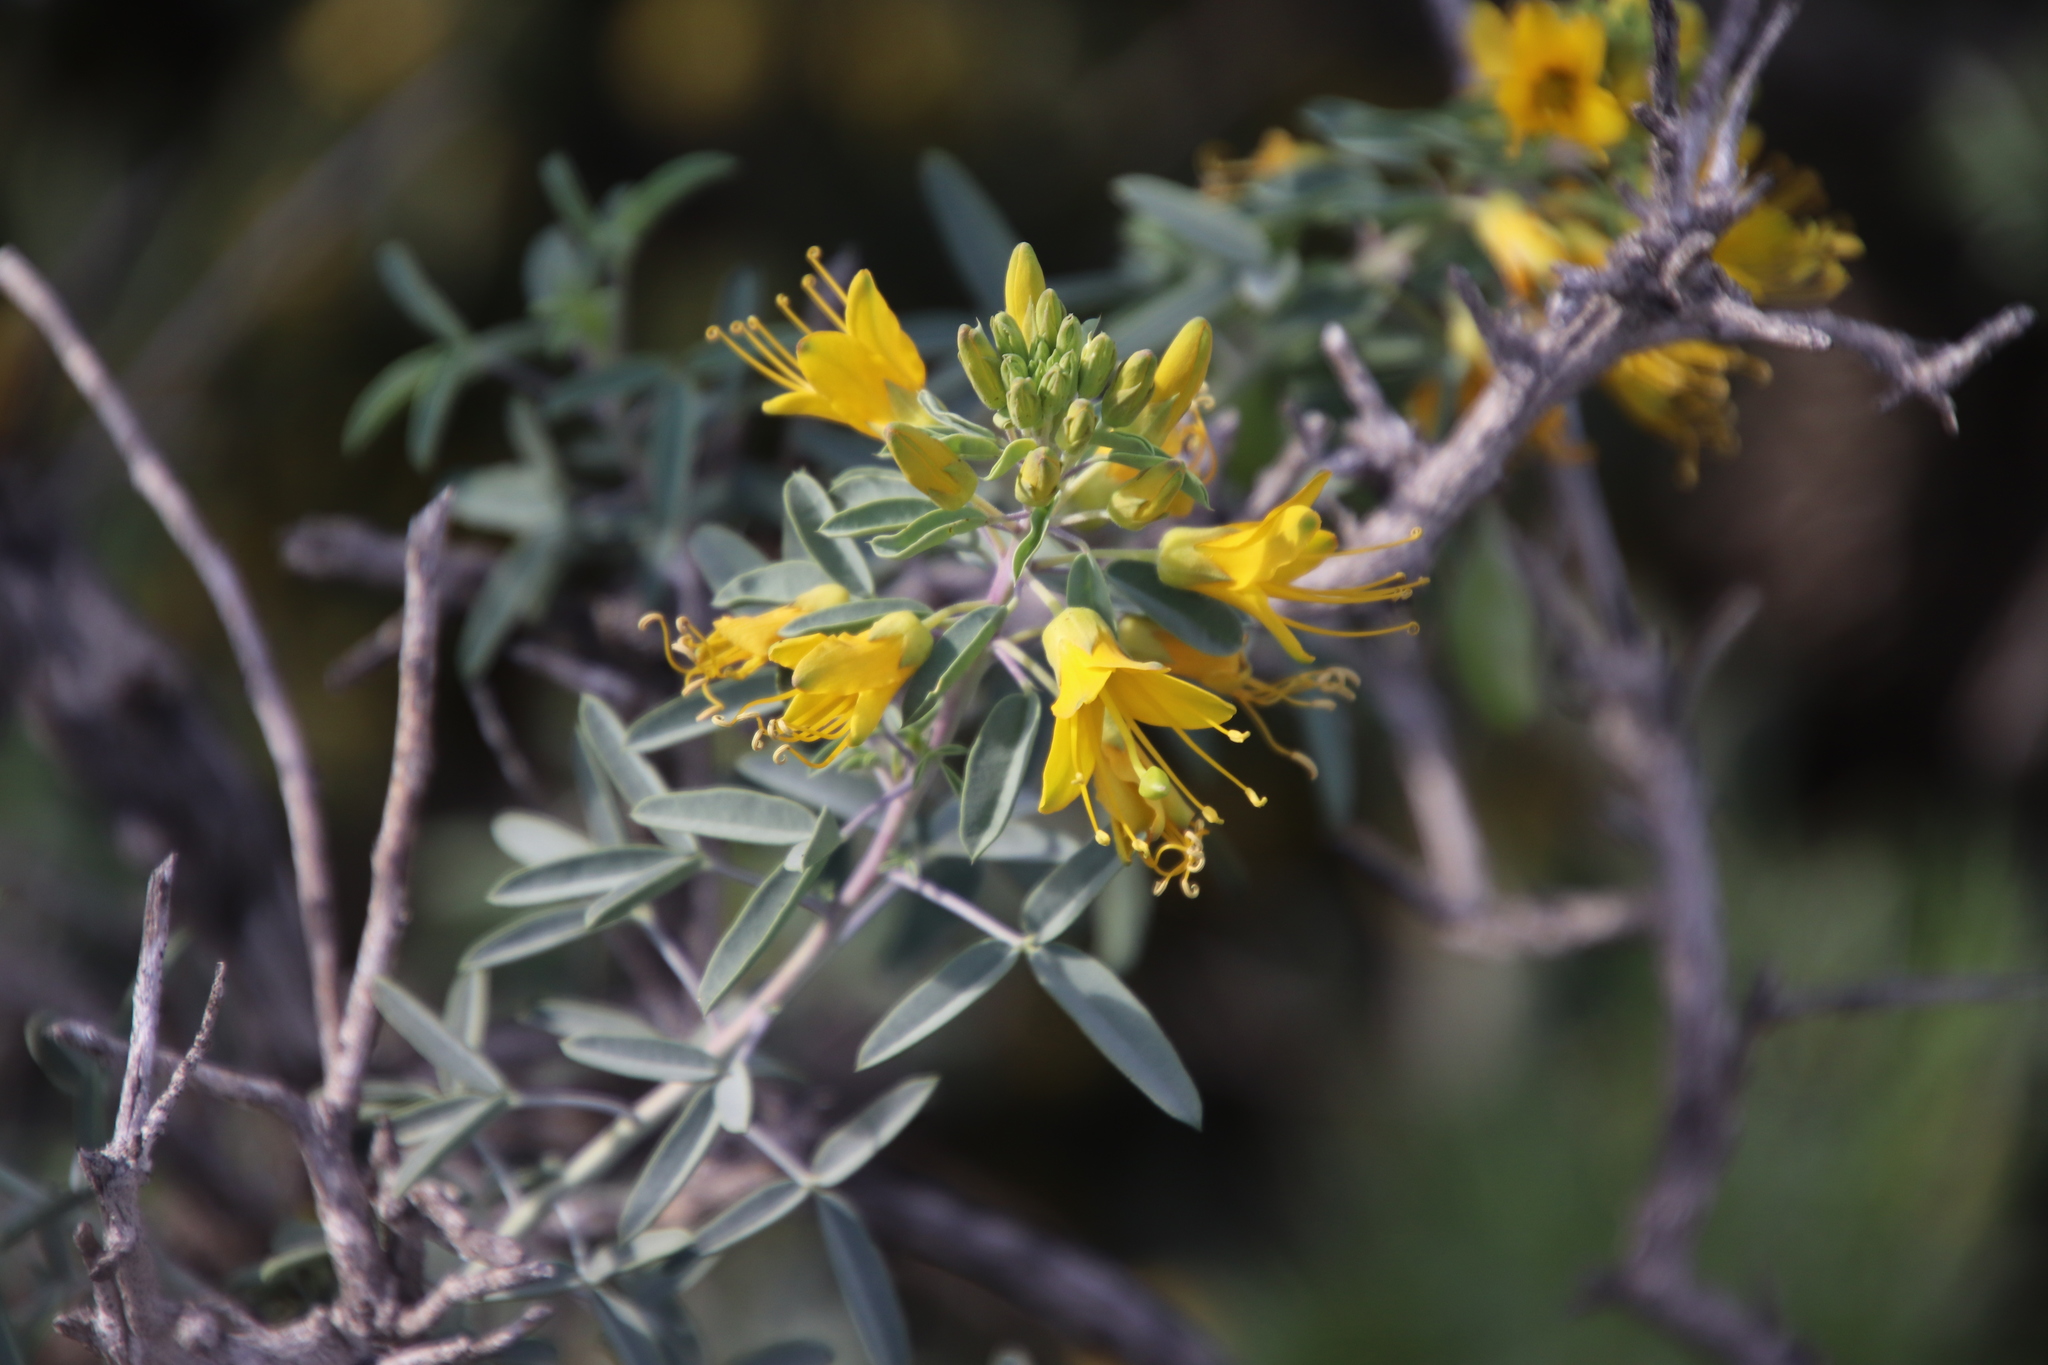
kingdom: Plantae
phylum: Tracheophyta
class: Magnoliopsida
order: Brassicales
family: Cleomaceae
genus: Cleomella
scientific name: Cleomella arborea
